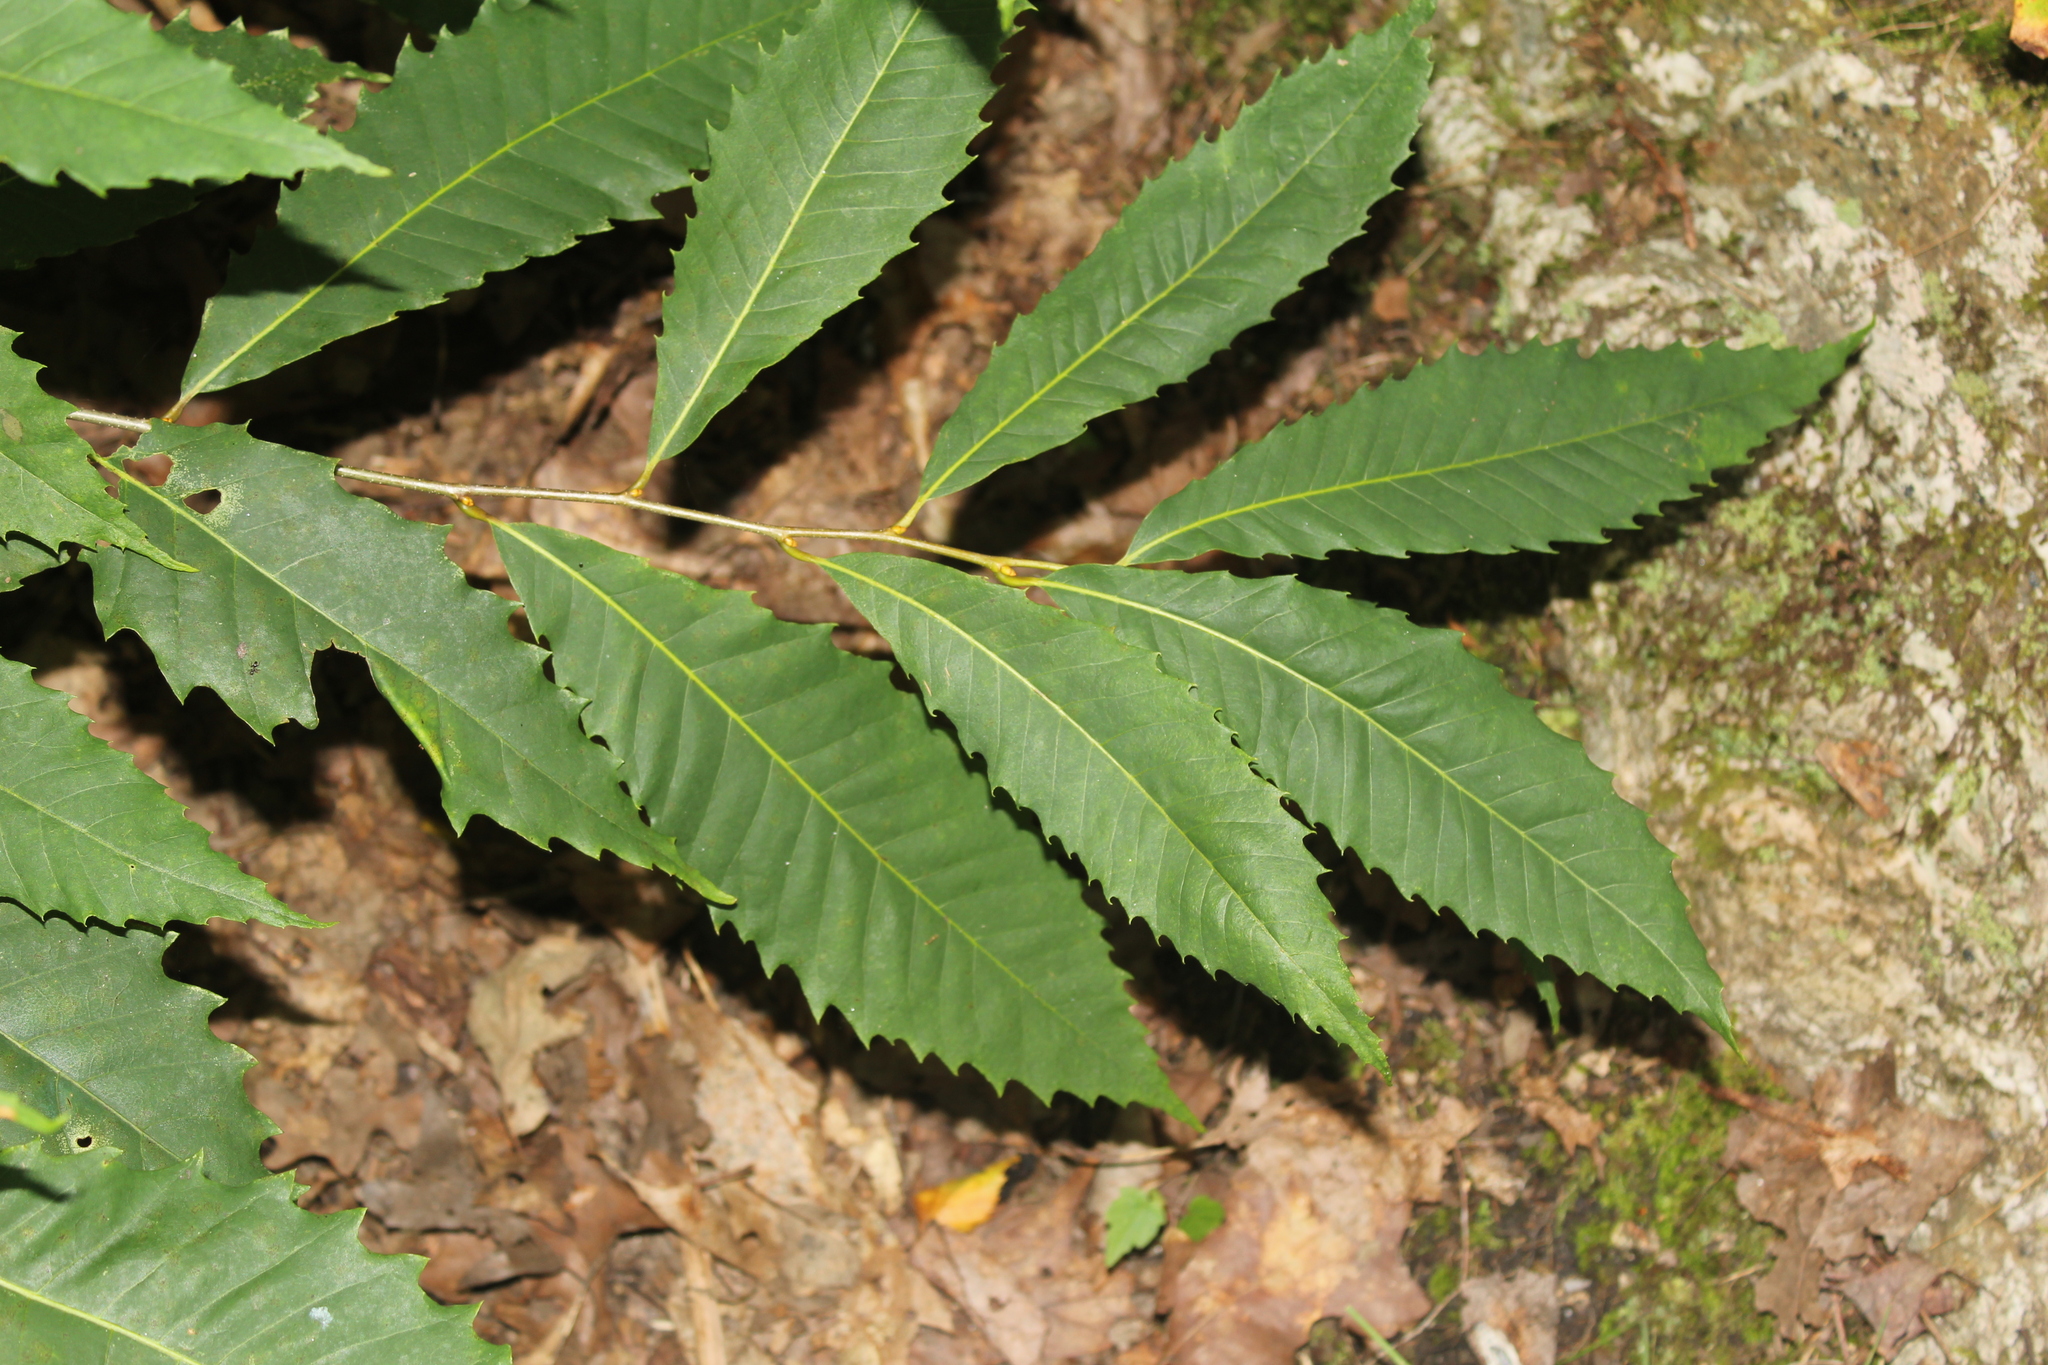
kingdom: Plantae
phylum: Tracheophyta
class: Magnoliopsida
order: Fagales
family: Fagaceae
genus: Castanea
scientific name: Castanea dentata
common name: American chestnut
